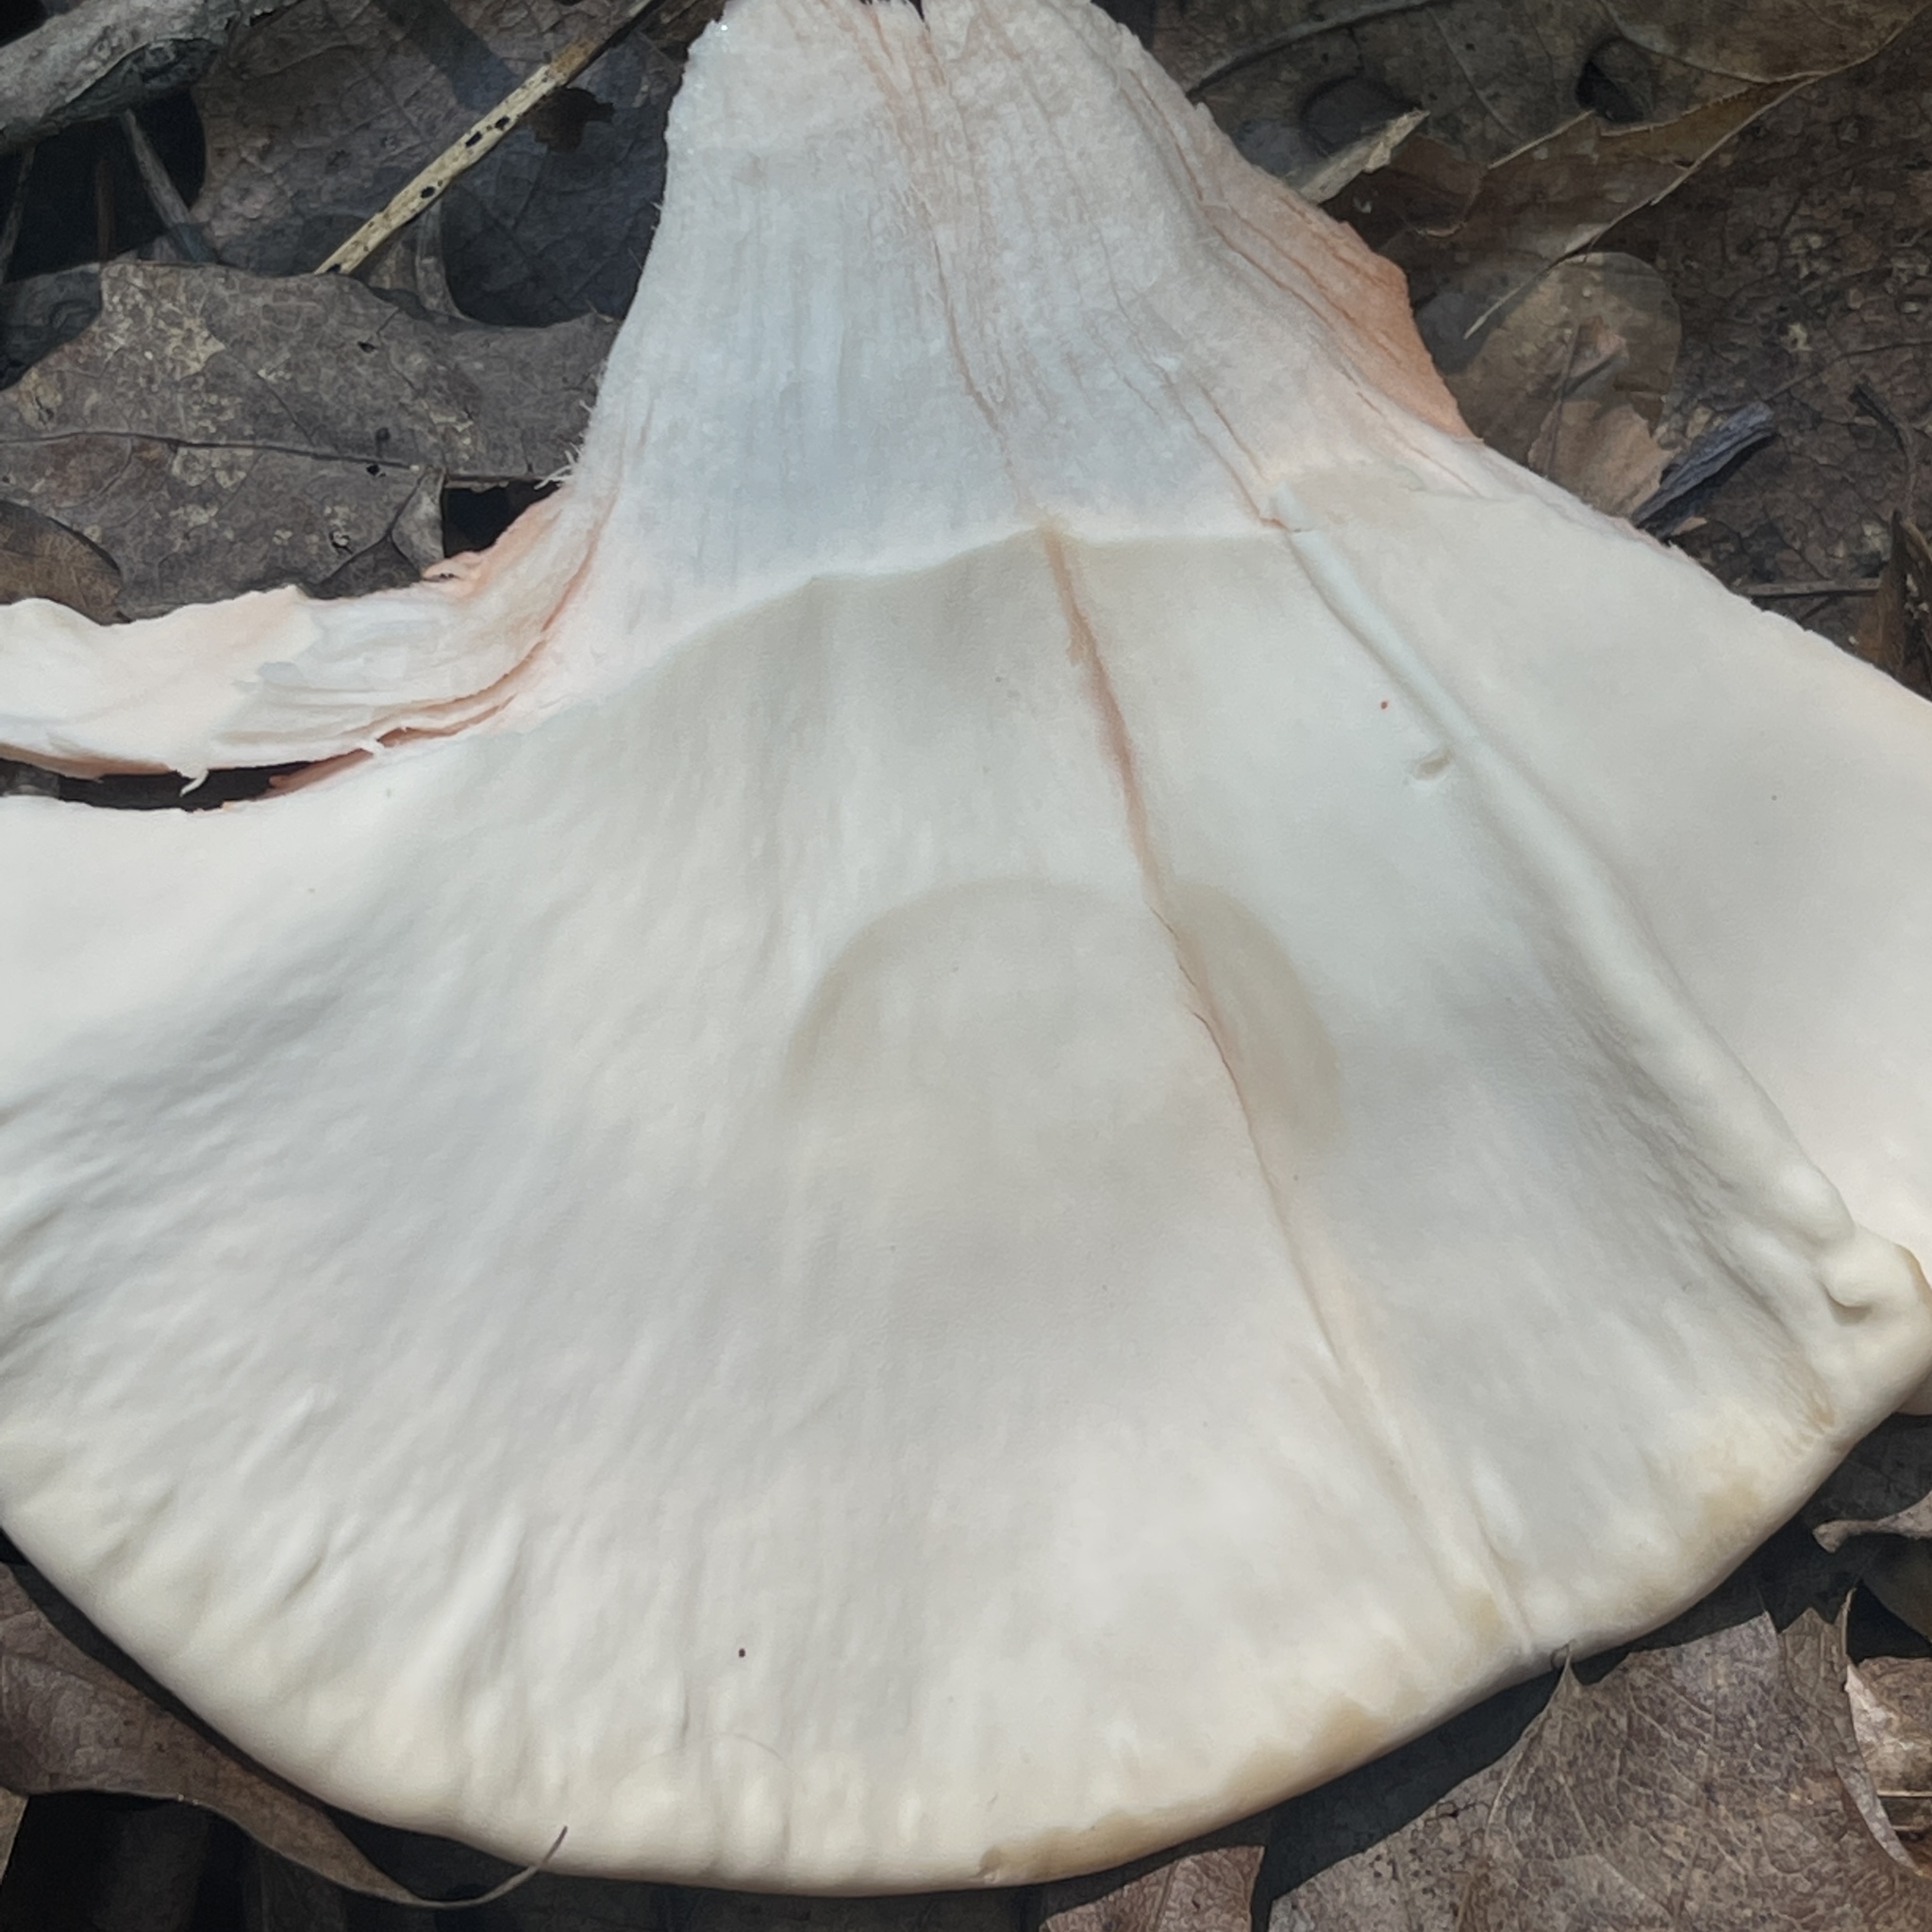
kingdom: Fungi
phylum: Basidiomycota
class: Agaricomycetes
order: Polyporales
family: Laetiporaceae
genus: Laetiporus
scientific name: Laetiporus sulphureus
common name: Chicken of the woods
